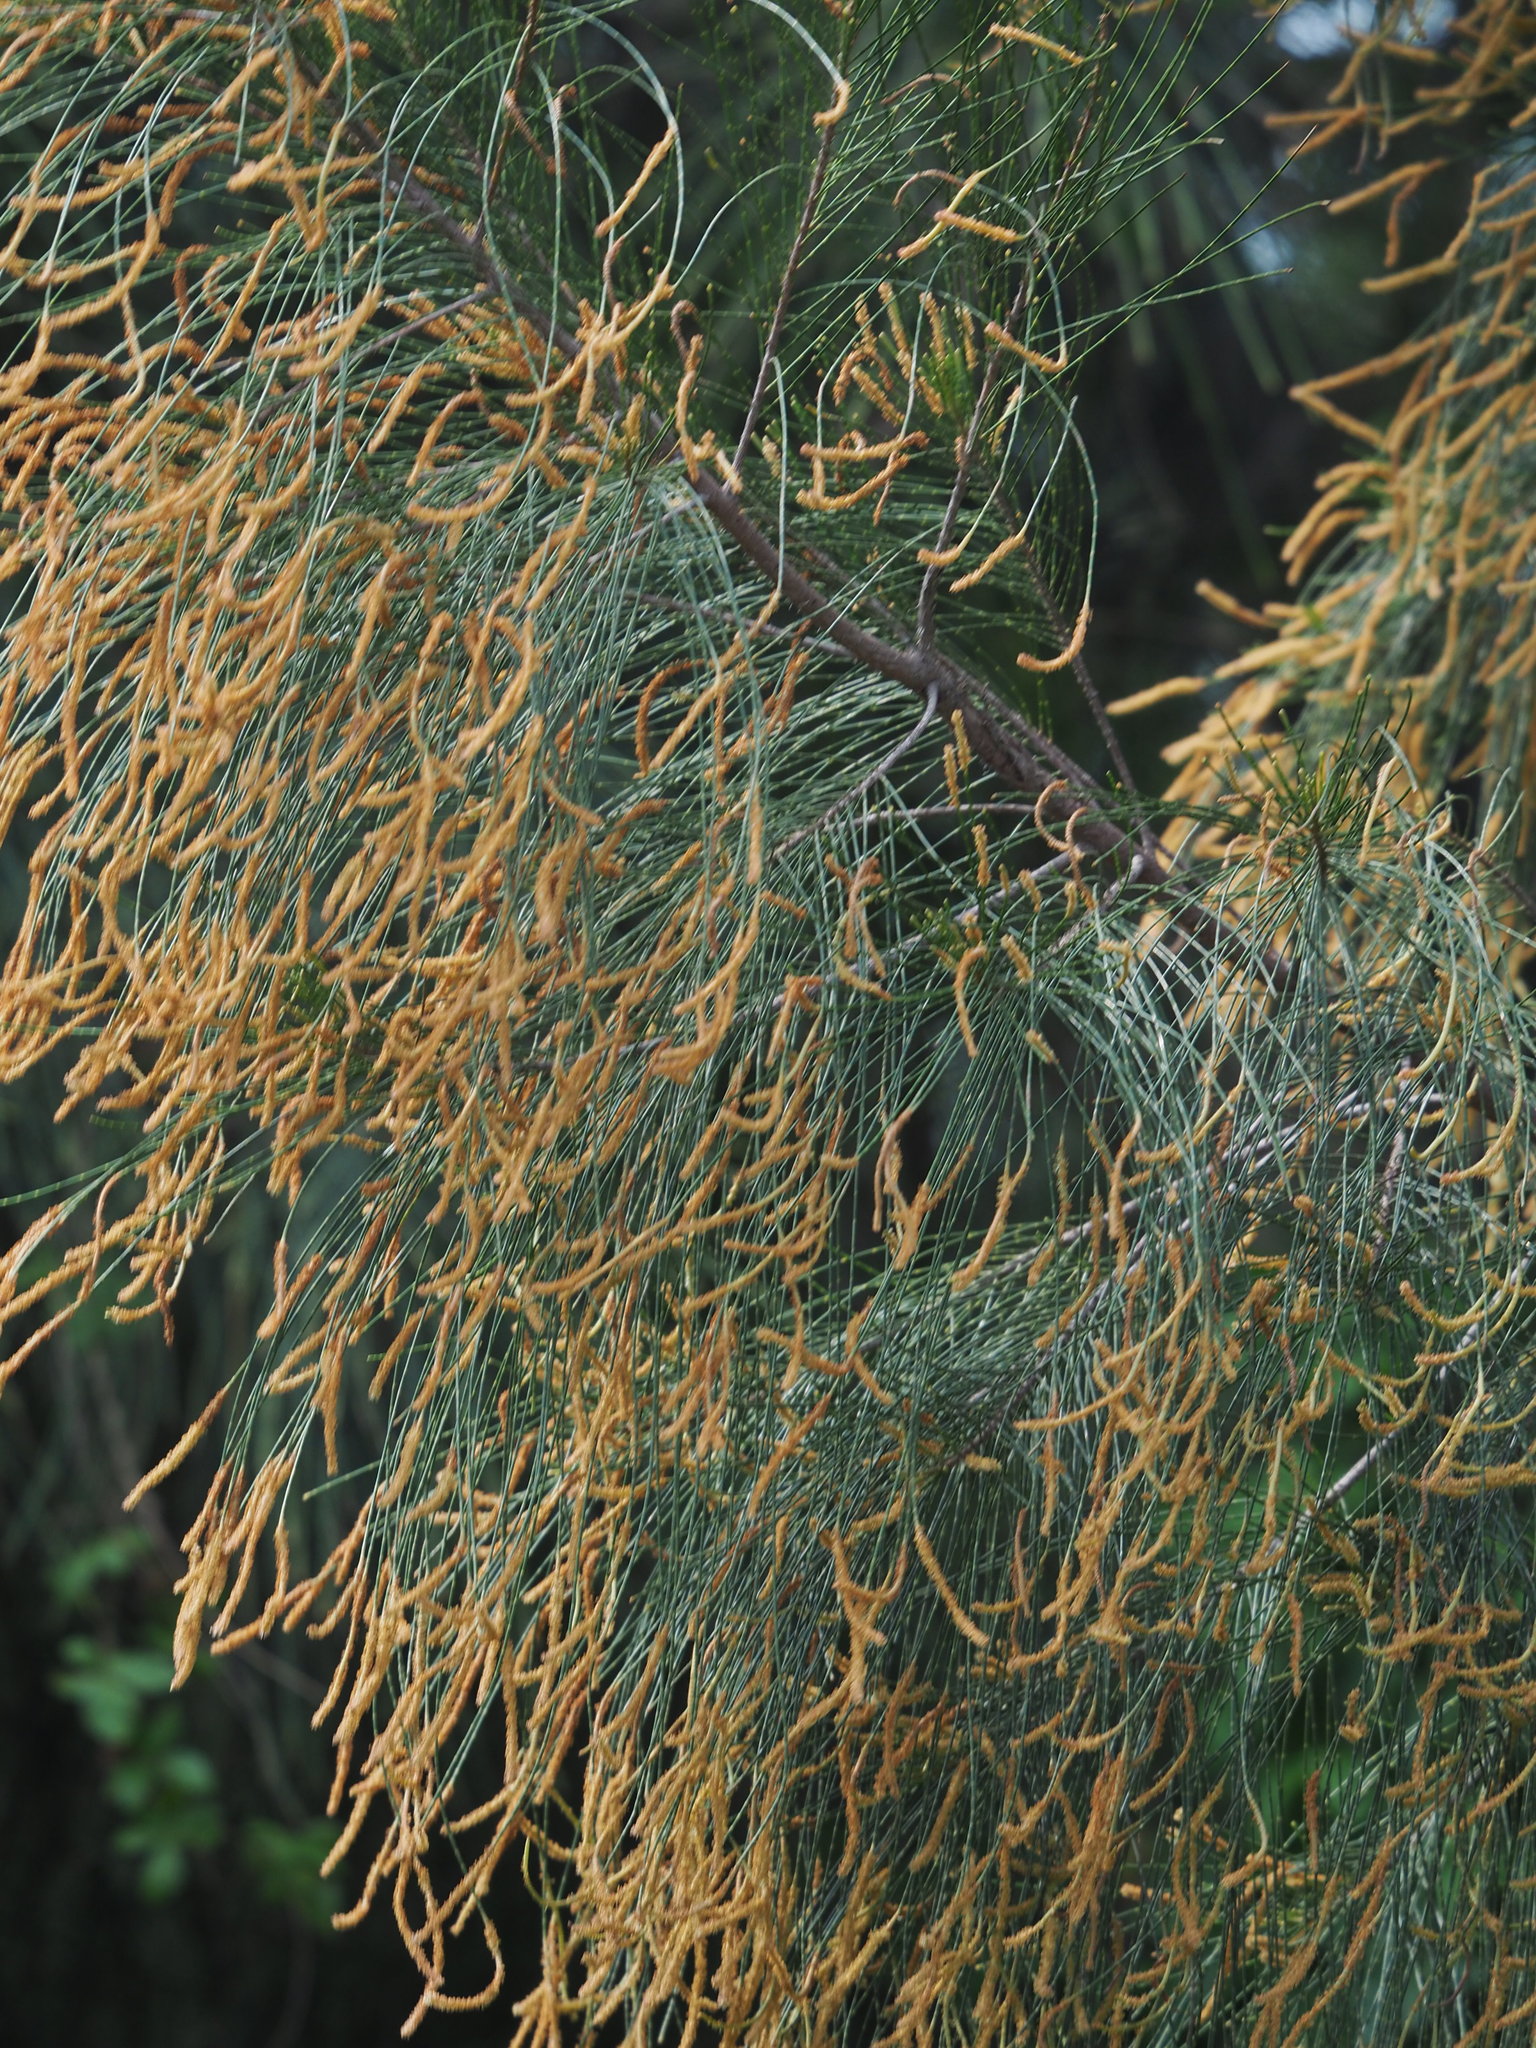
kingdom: Plantae
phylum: Tracheophyta
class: Magnoliopsida
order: Fagales
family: Casuarinaceae
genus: Casuarina
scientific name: Casuarina equisetifolia
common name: Beach sheoak
